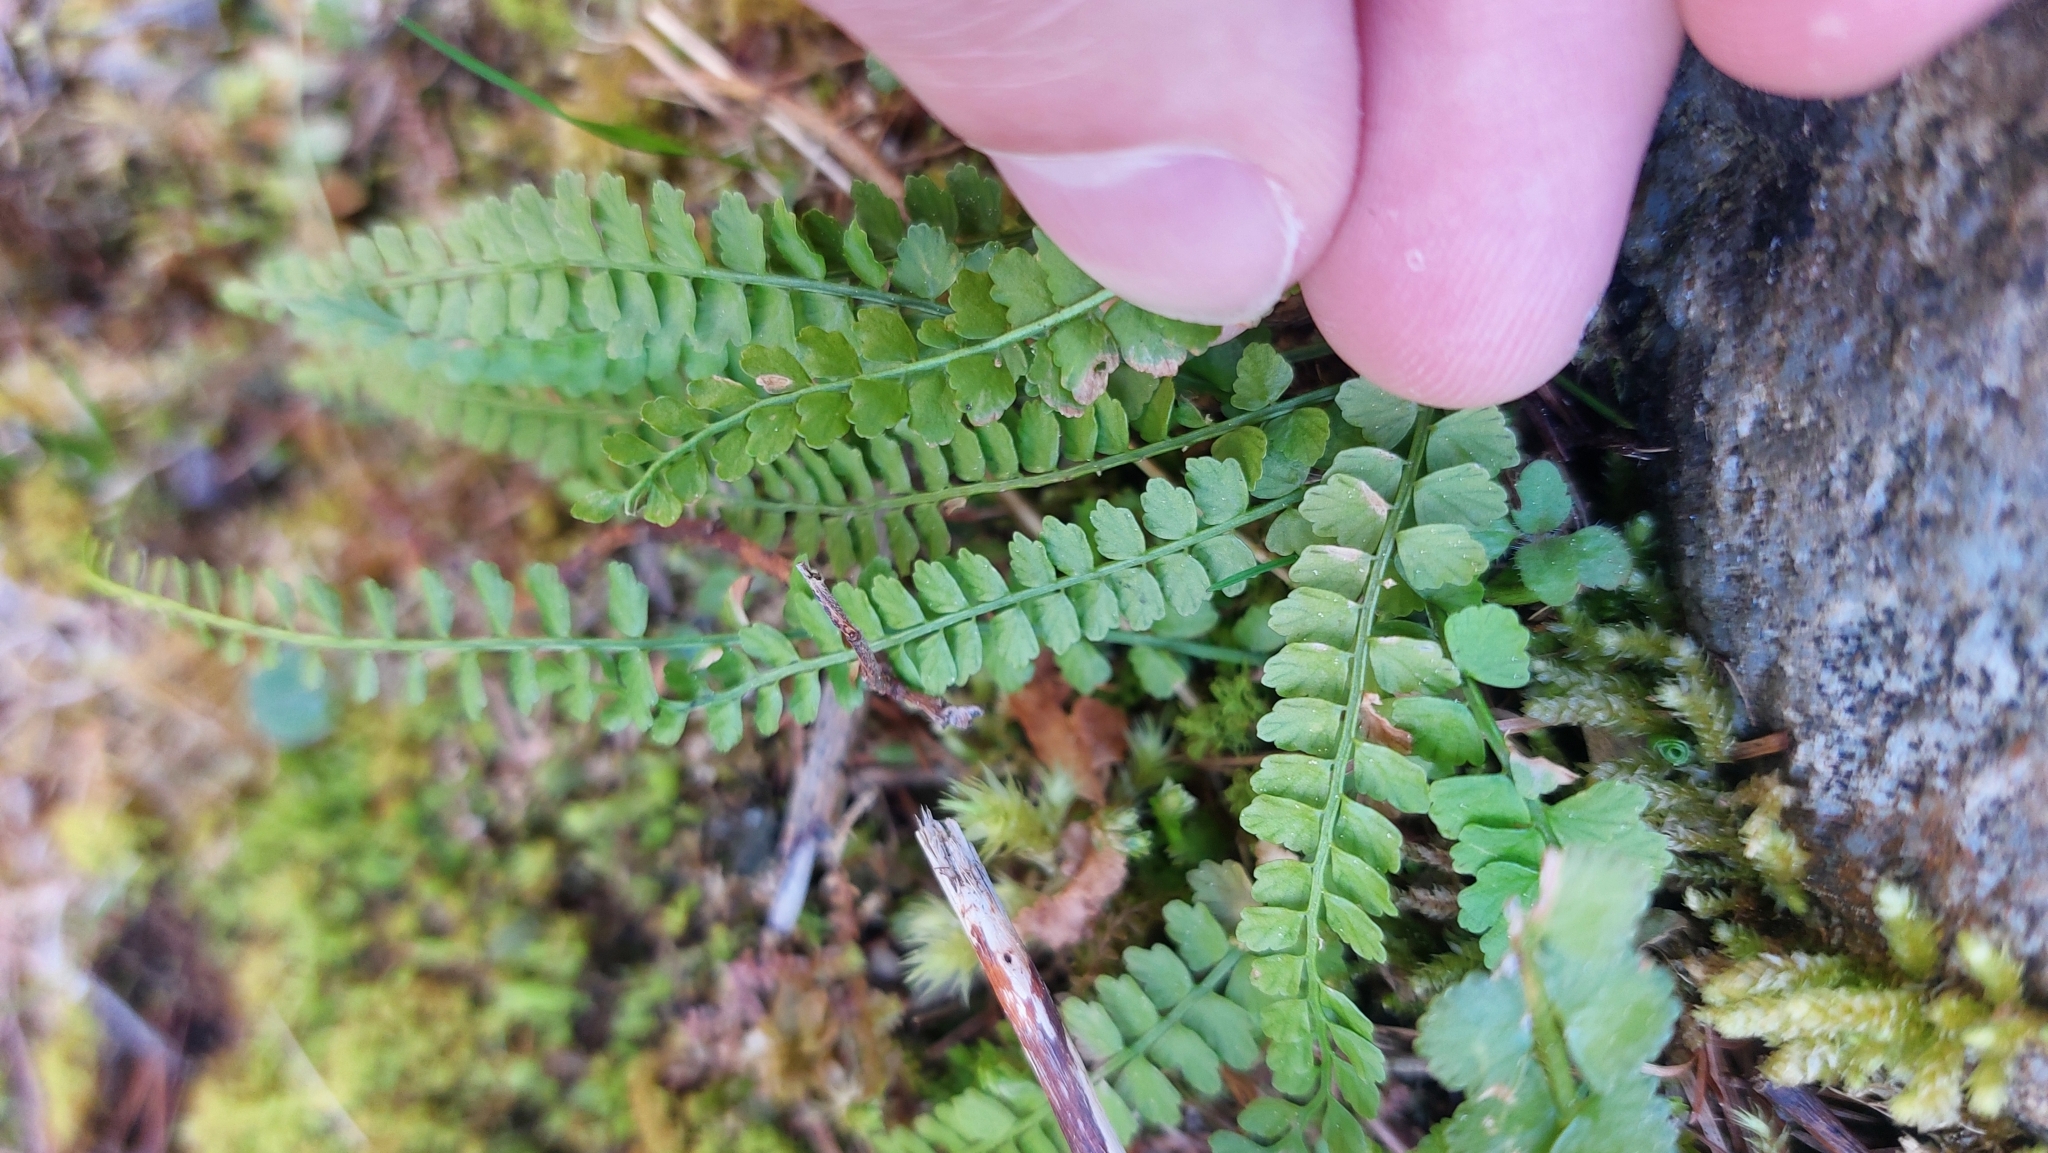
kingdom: Plantae
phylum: Tracheophyta
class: Polypodiopsida
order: Polypodiales
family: Aspleniaceae
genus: Asplenium
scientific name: Asplenium viride
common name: Green spleenwort
